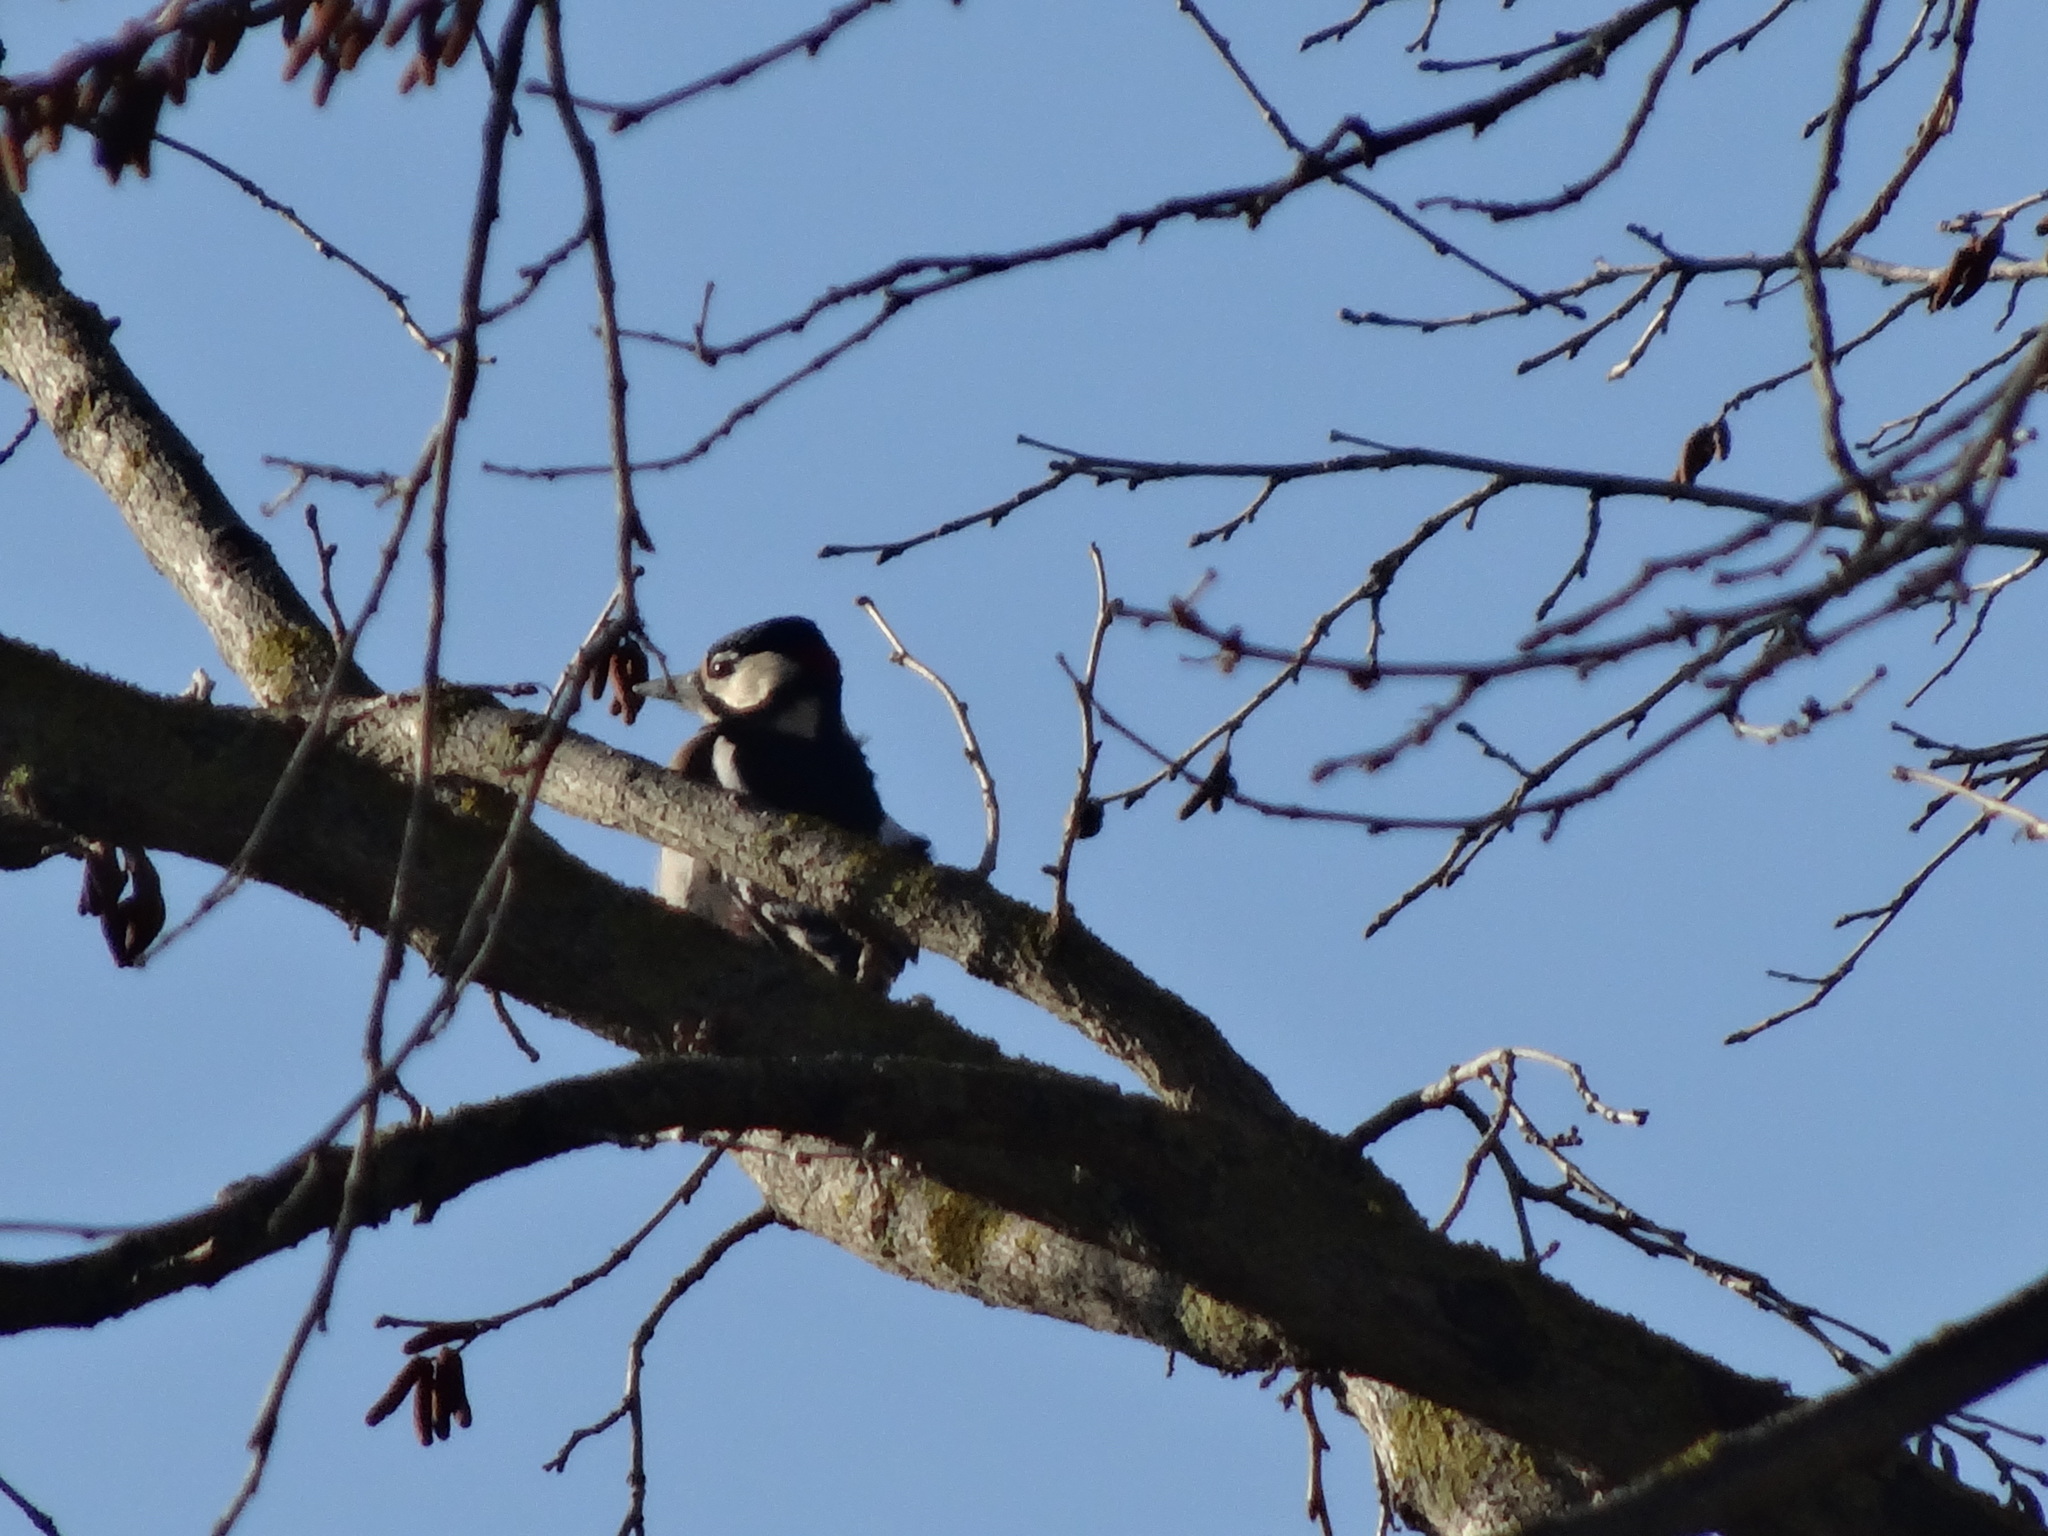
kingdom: Animalia
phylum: Chordata
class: Aves
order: Piciformes
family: Picidae
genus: Dendrocopos
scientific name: Dendrocopos major
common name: Great spotted woodpecker
